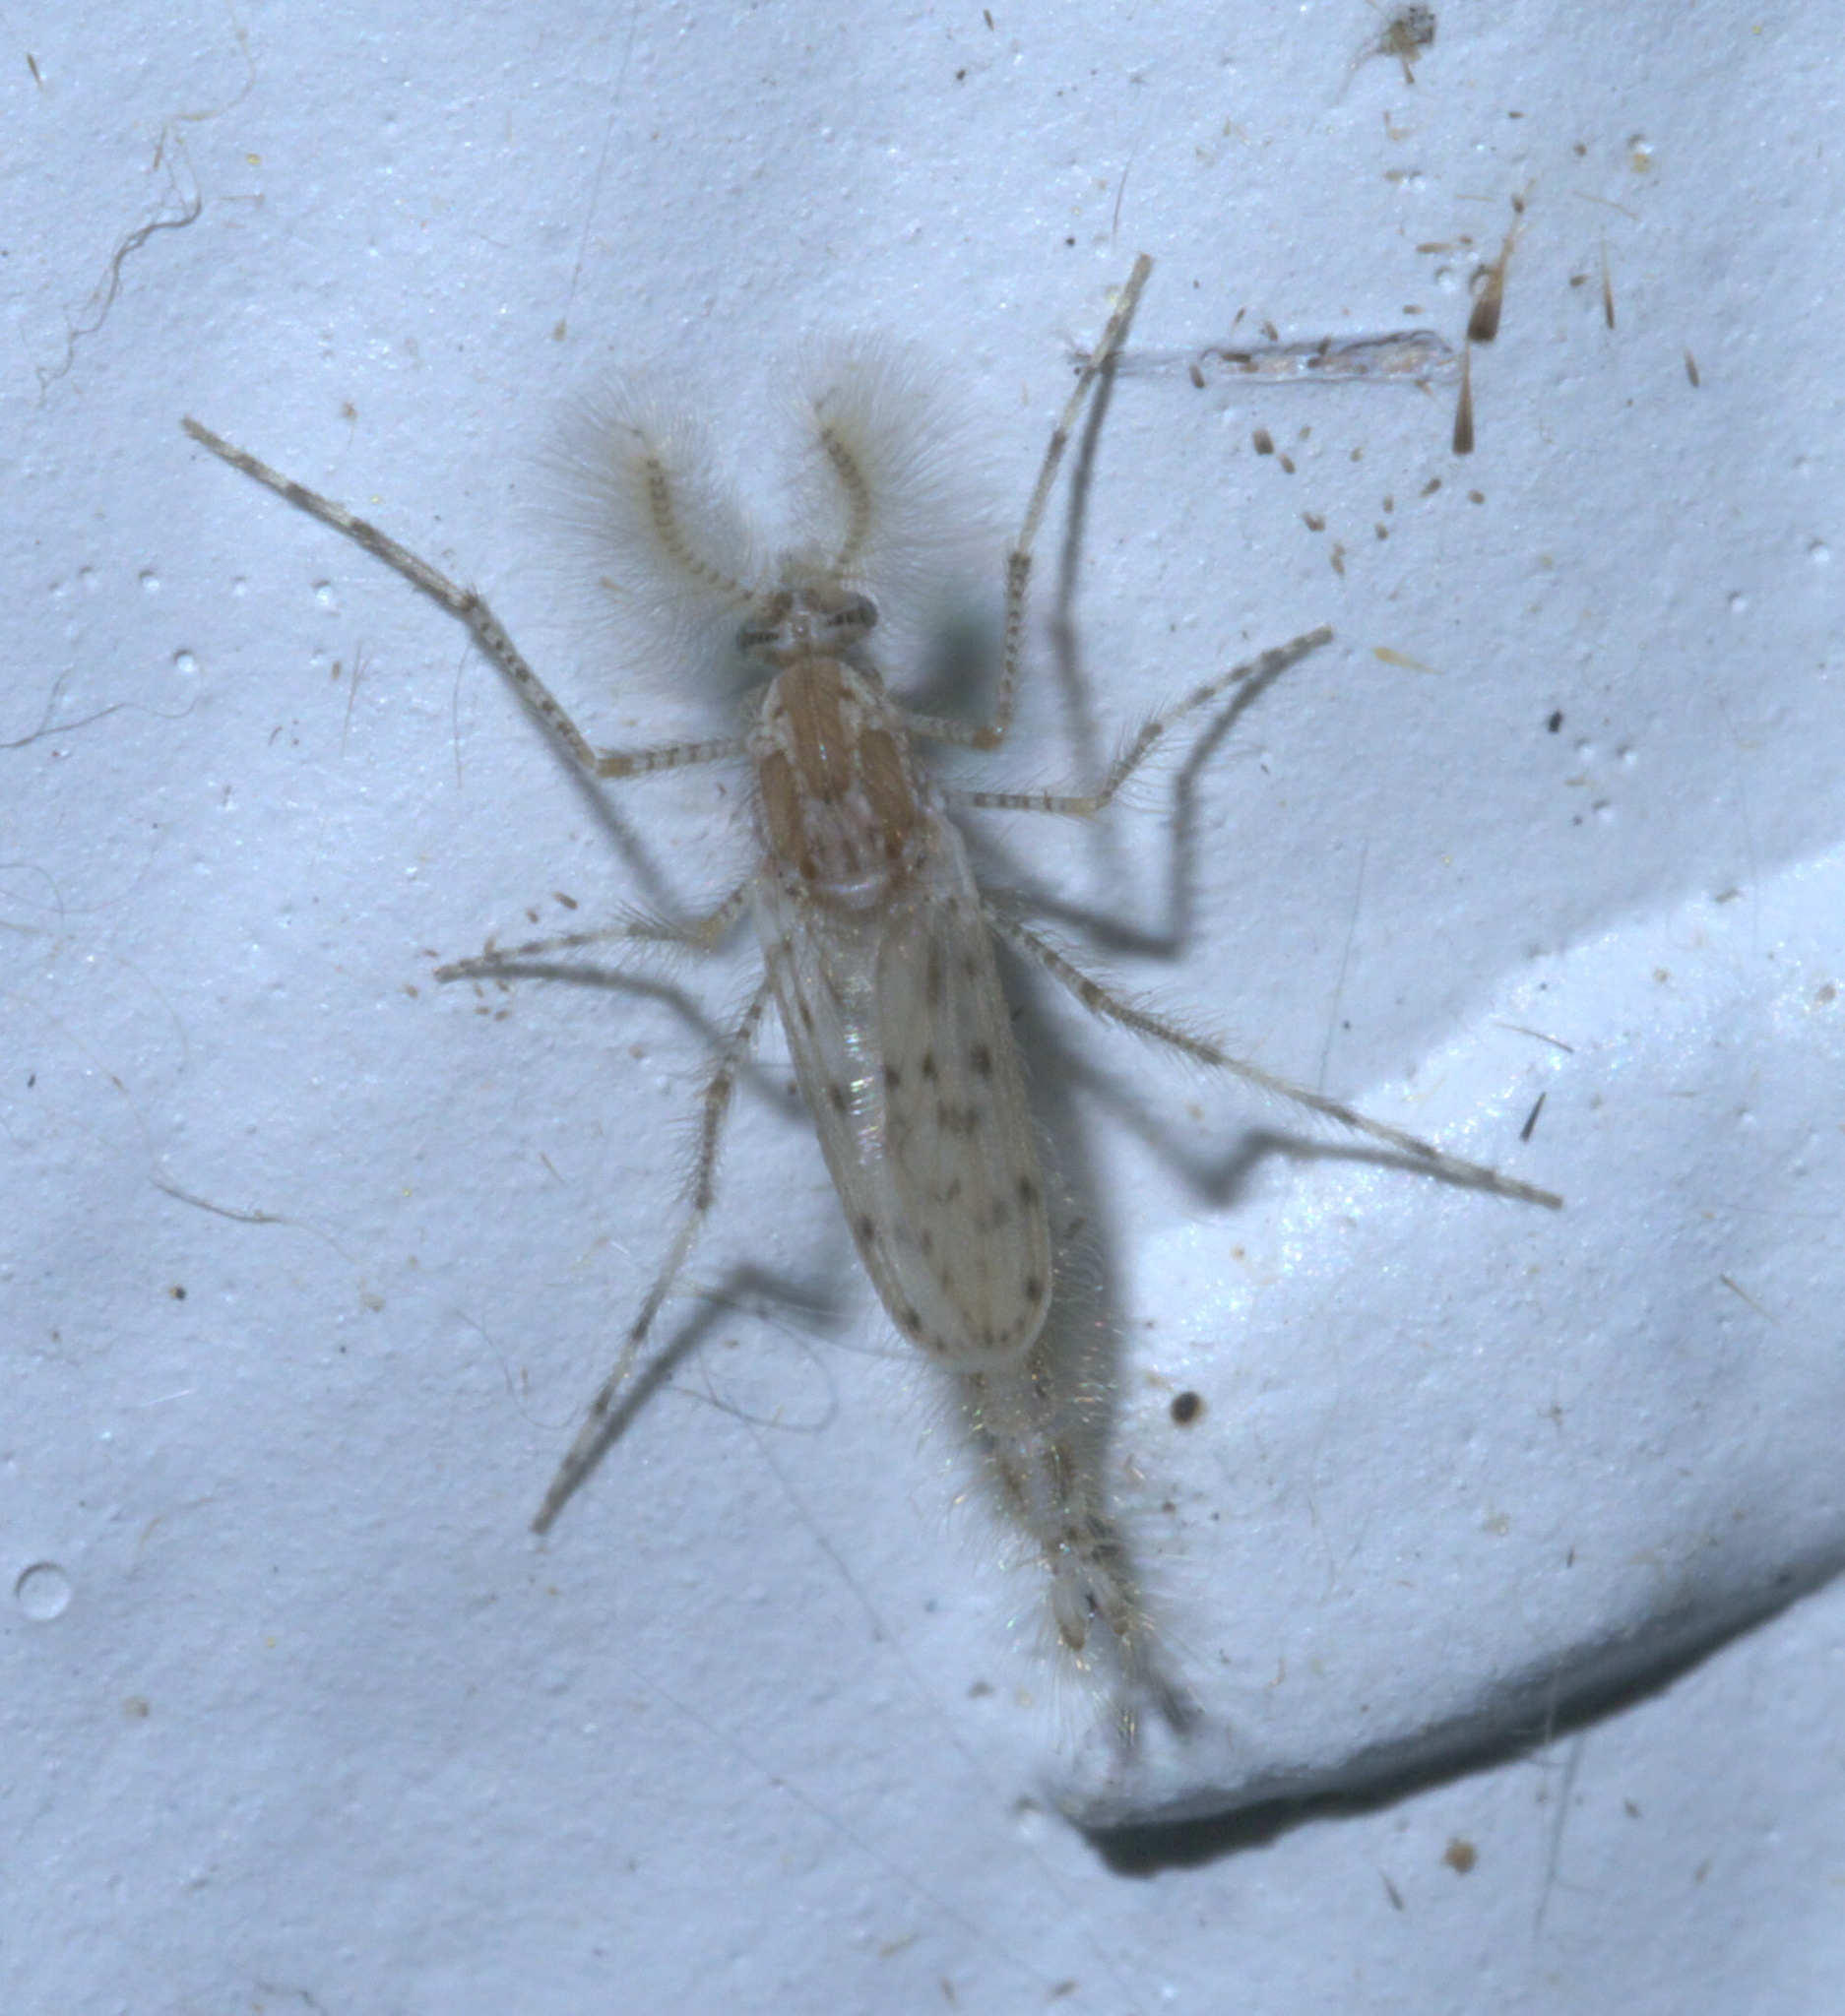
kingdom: Animalia
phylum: Arthropoda
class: Insecta
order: Diptera
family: Chaoboridae
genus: Chaoborus
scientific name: Chaoborus punctipennis
